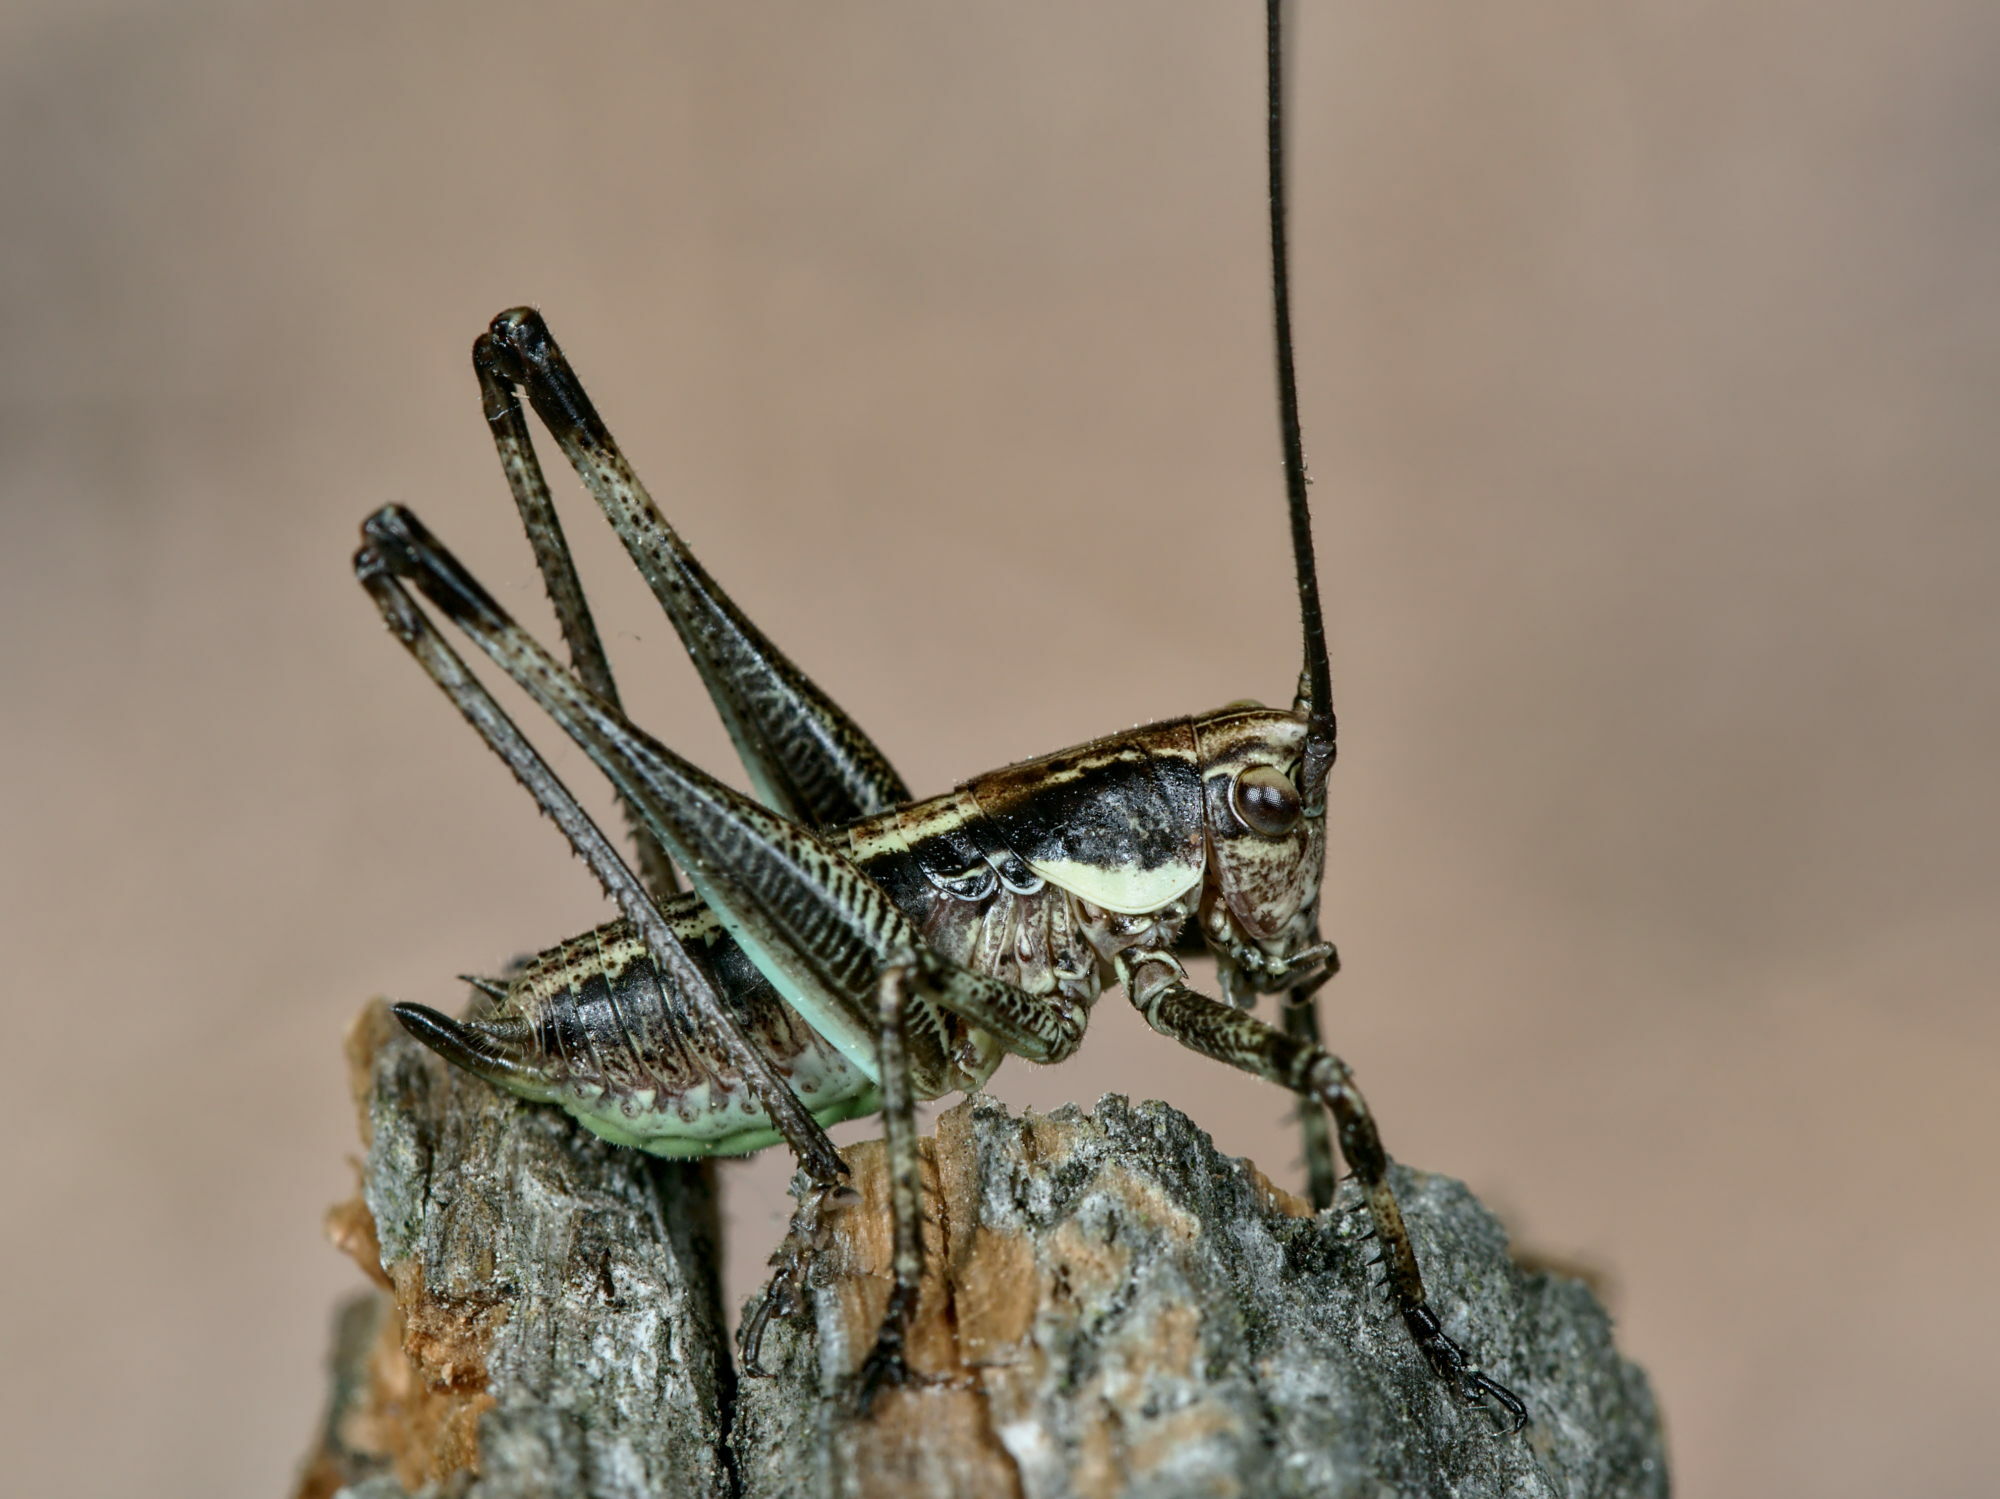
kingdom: Animalia
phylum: Arthropoda
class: Insecta
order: Orthoptera
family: Tettigoniidae
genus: Antaxius
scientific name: Antaxius pedestris
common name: Common mountain bush-cricket
